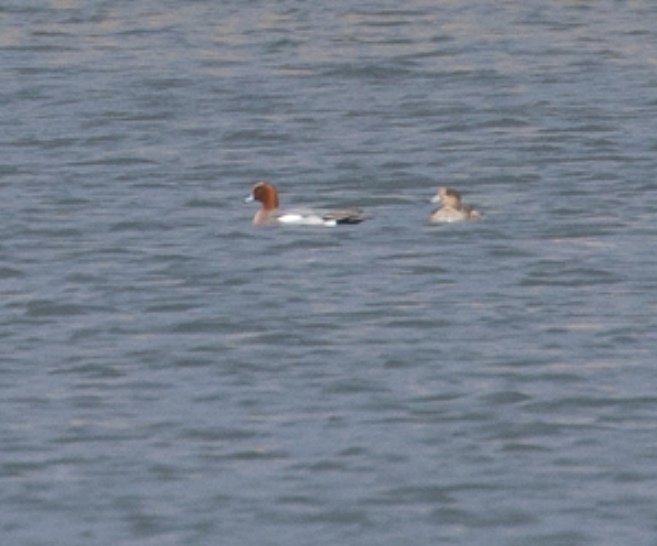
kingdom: Animalia
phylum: Chordata
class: Aves
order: Anseriformes
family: Anatidae
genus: Mareca
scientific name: Mareca penelope
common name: Eurasian wigeon
